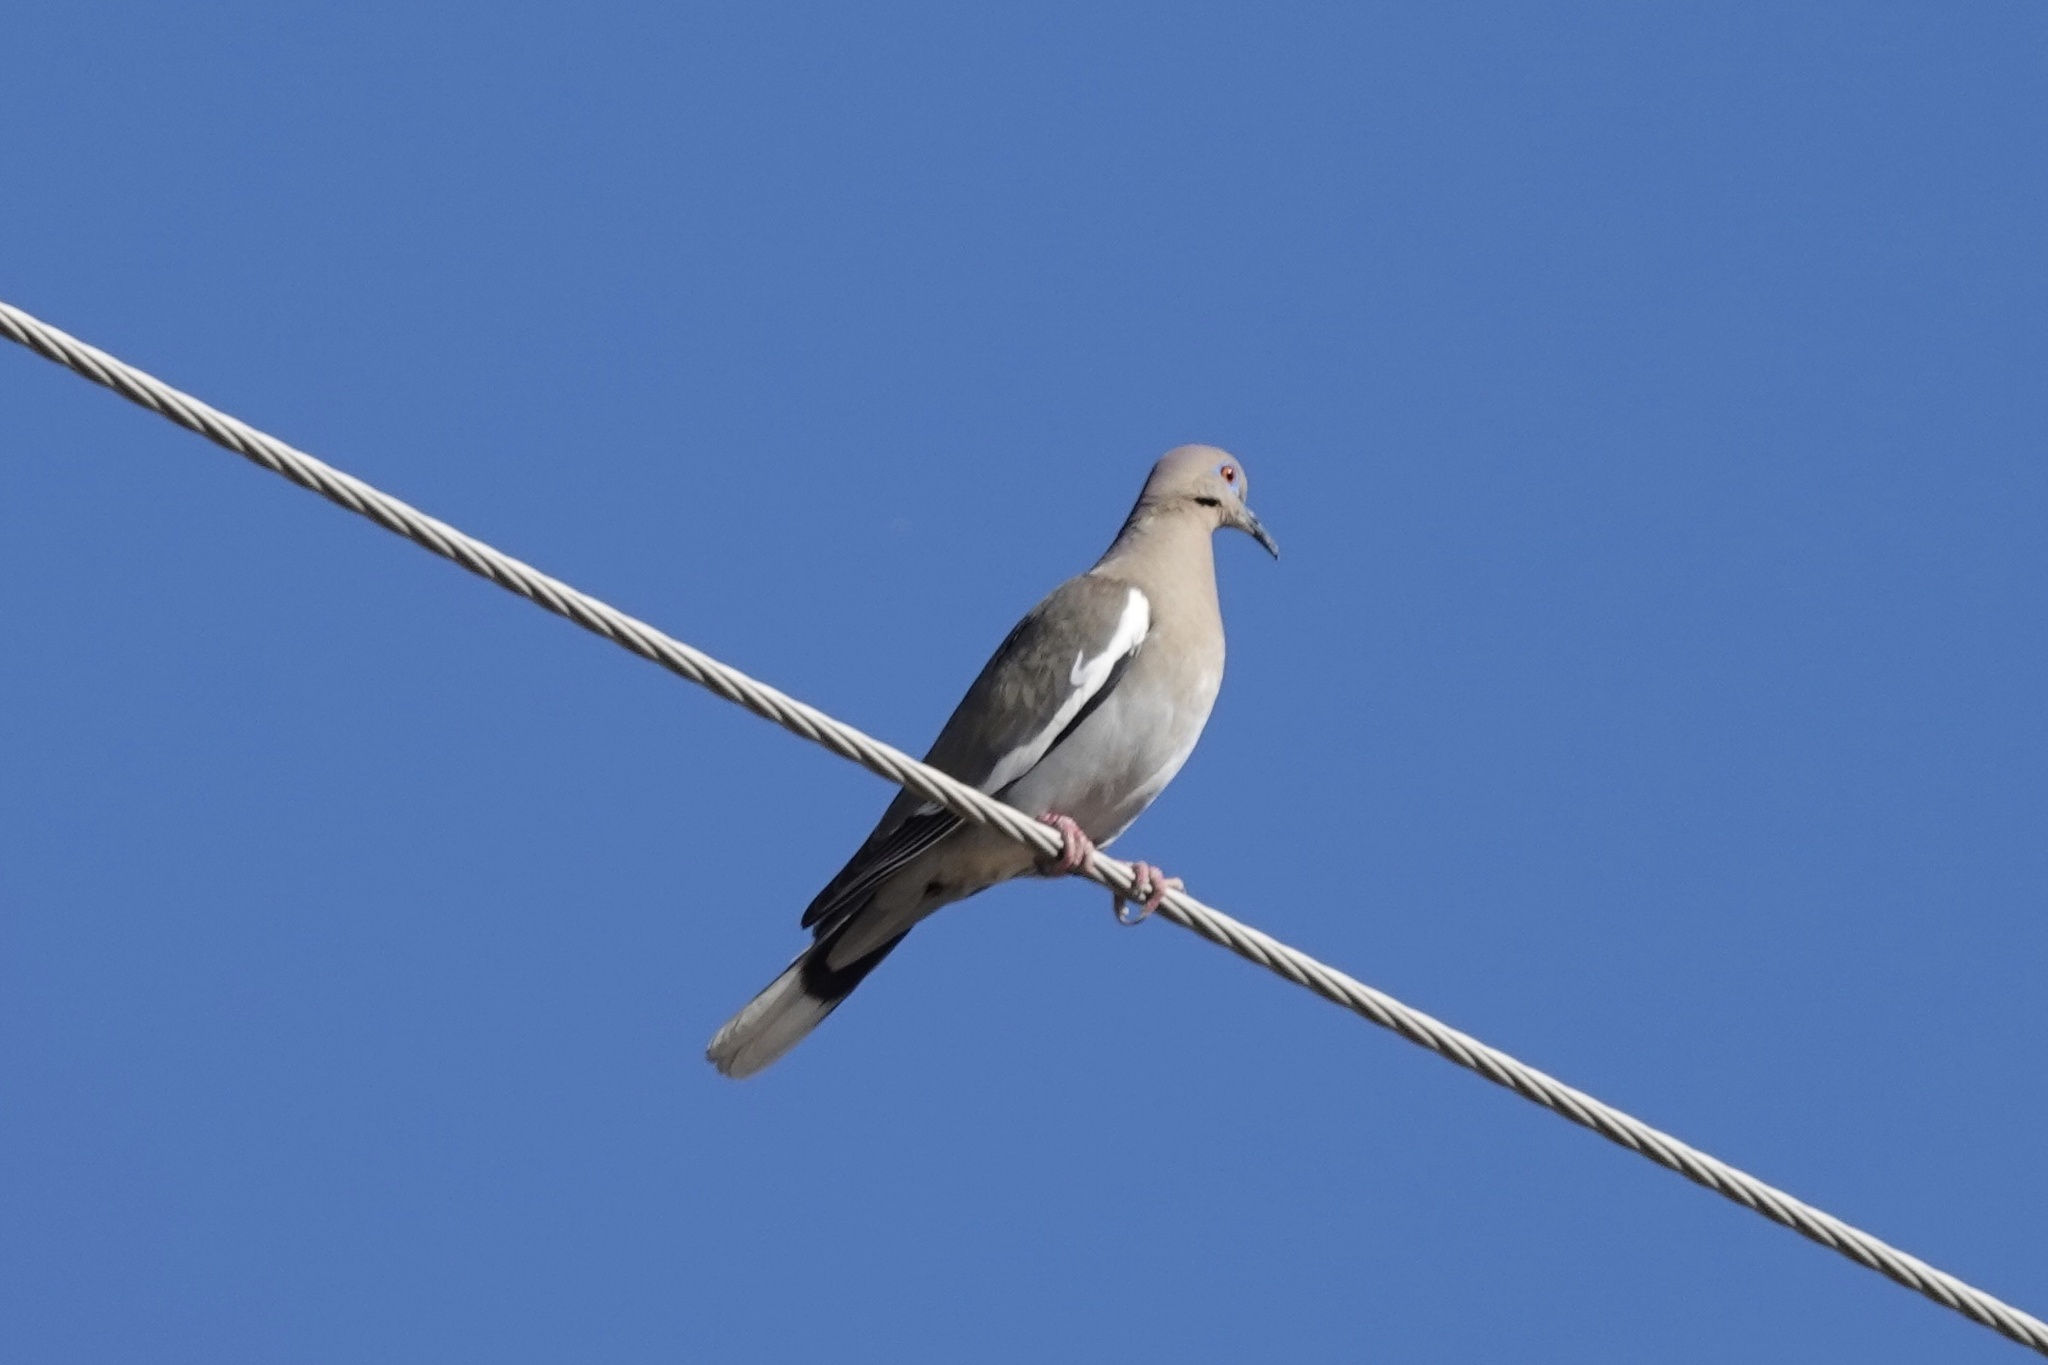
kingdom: Animalia
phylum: Chordata
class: Aves
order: Columbiformes
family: Columbidae
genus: Zenaida
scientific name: Zenaida asiatica
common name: White-winged dove
